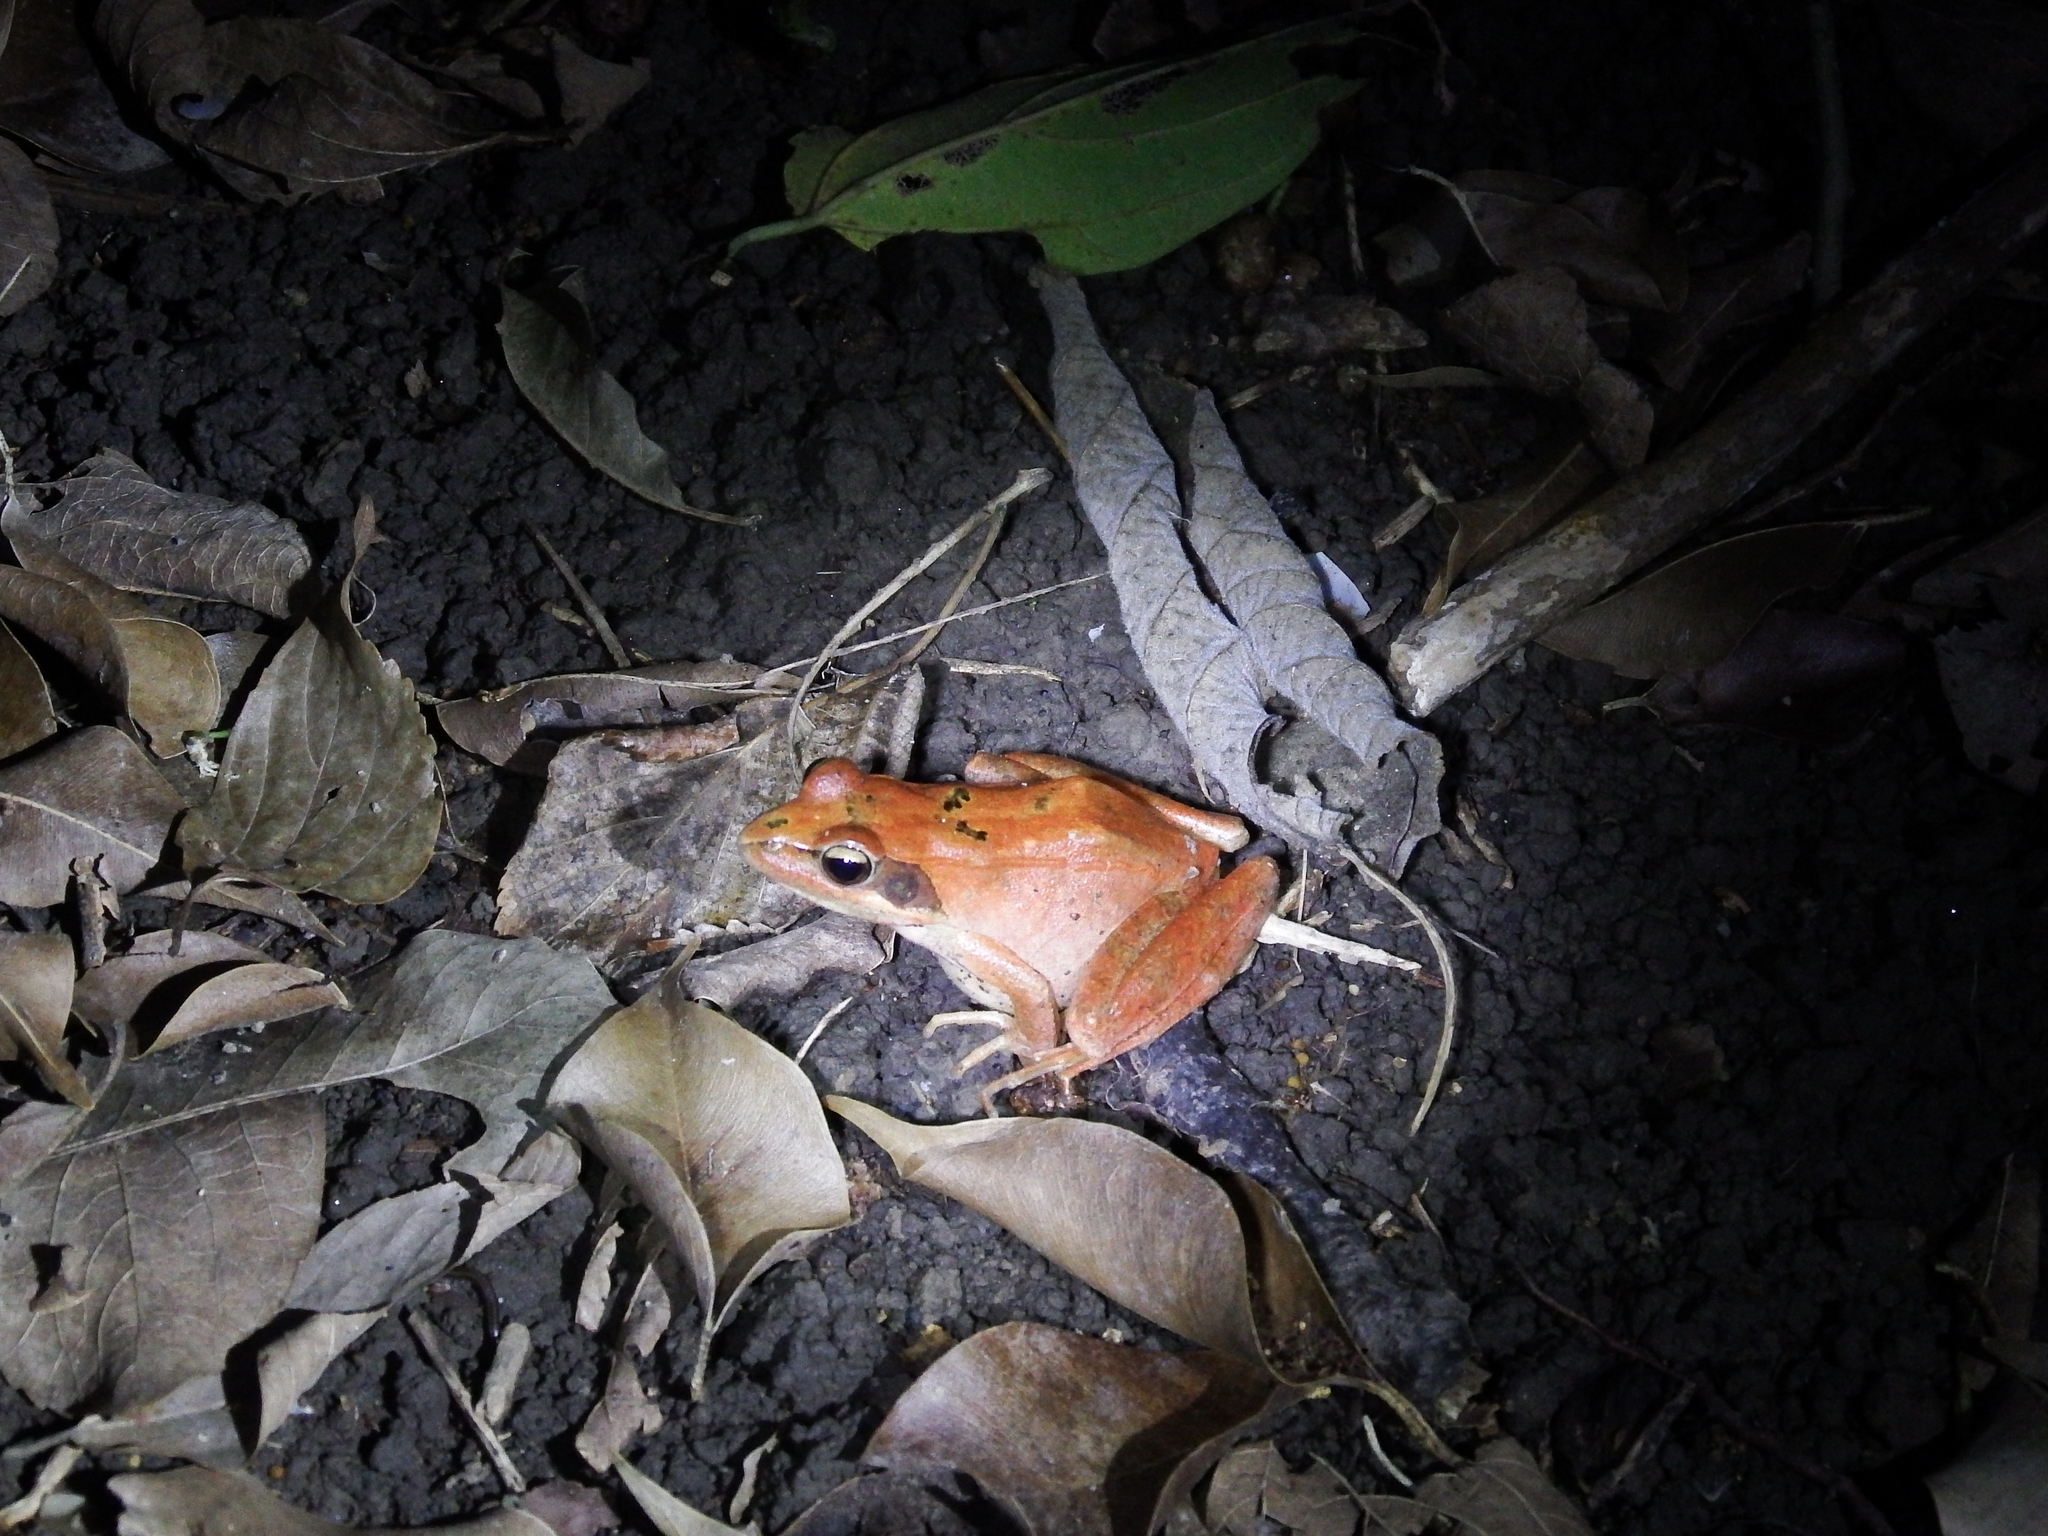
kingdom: Animalia
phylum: Chordata
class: Amphibia
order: Anura
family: Ranidae
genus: Rana
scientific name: Rana longicrus
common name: Long-legged brown frog
